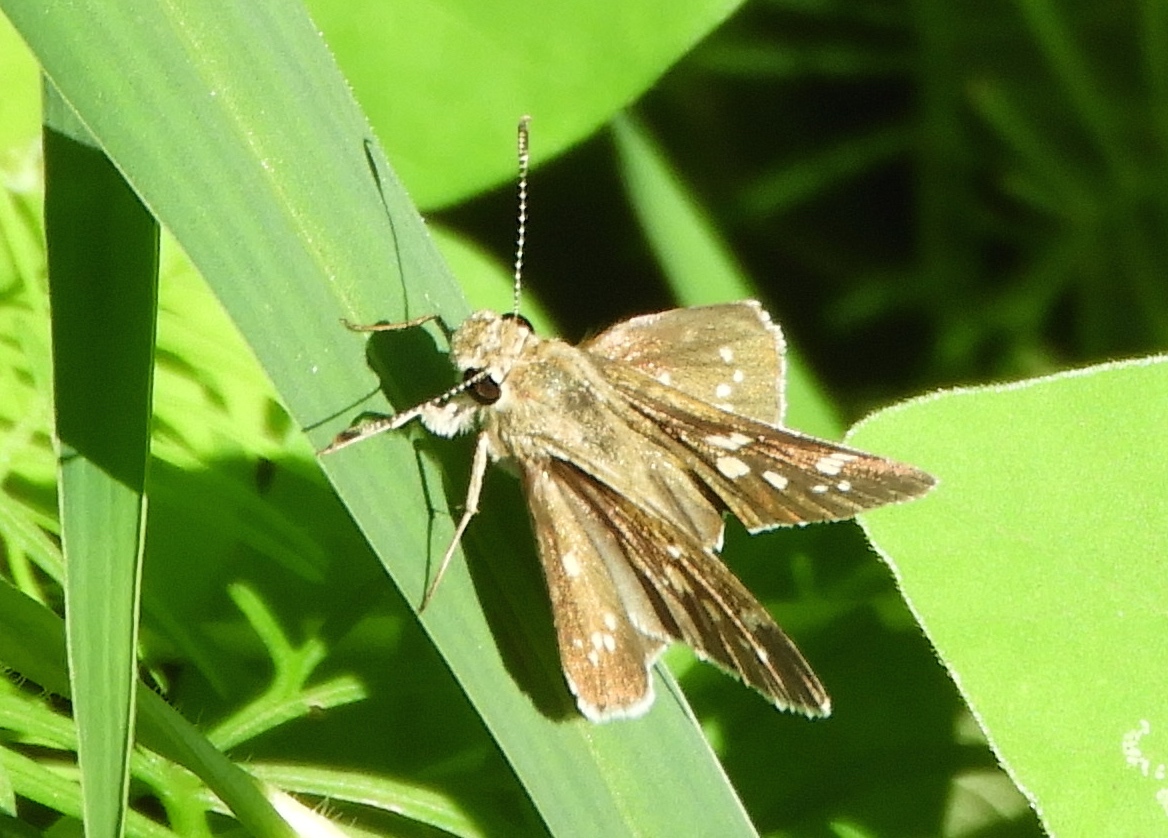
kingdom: Animalia
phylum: Arthropoda
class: Insecta
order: Lepidoptera
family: Hesperiidae
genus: Mastor
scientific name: Mastor tolteca
